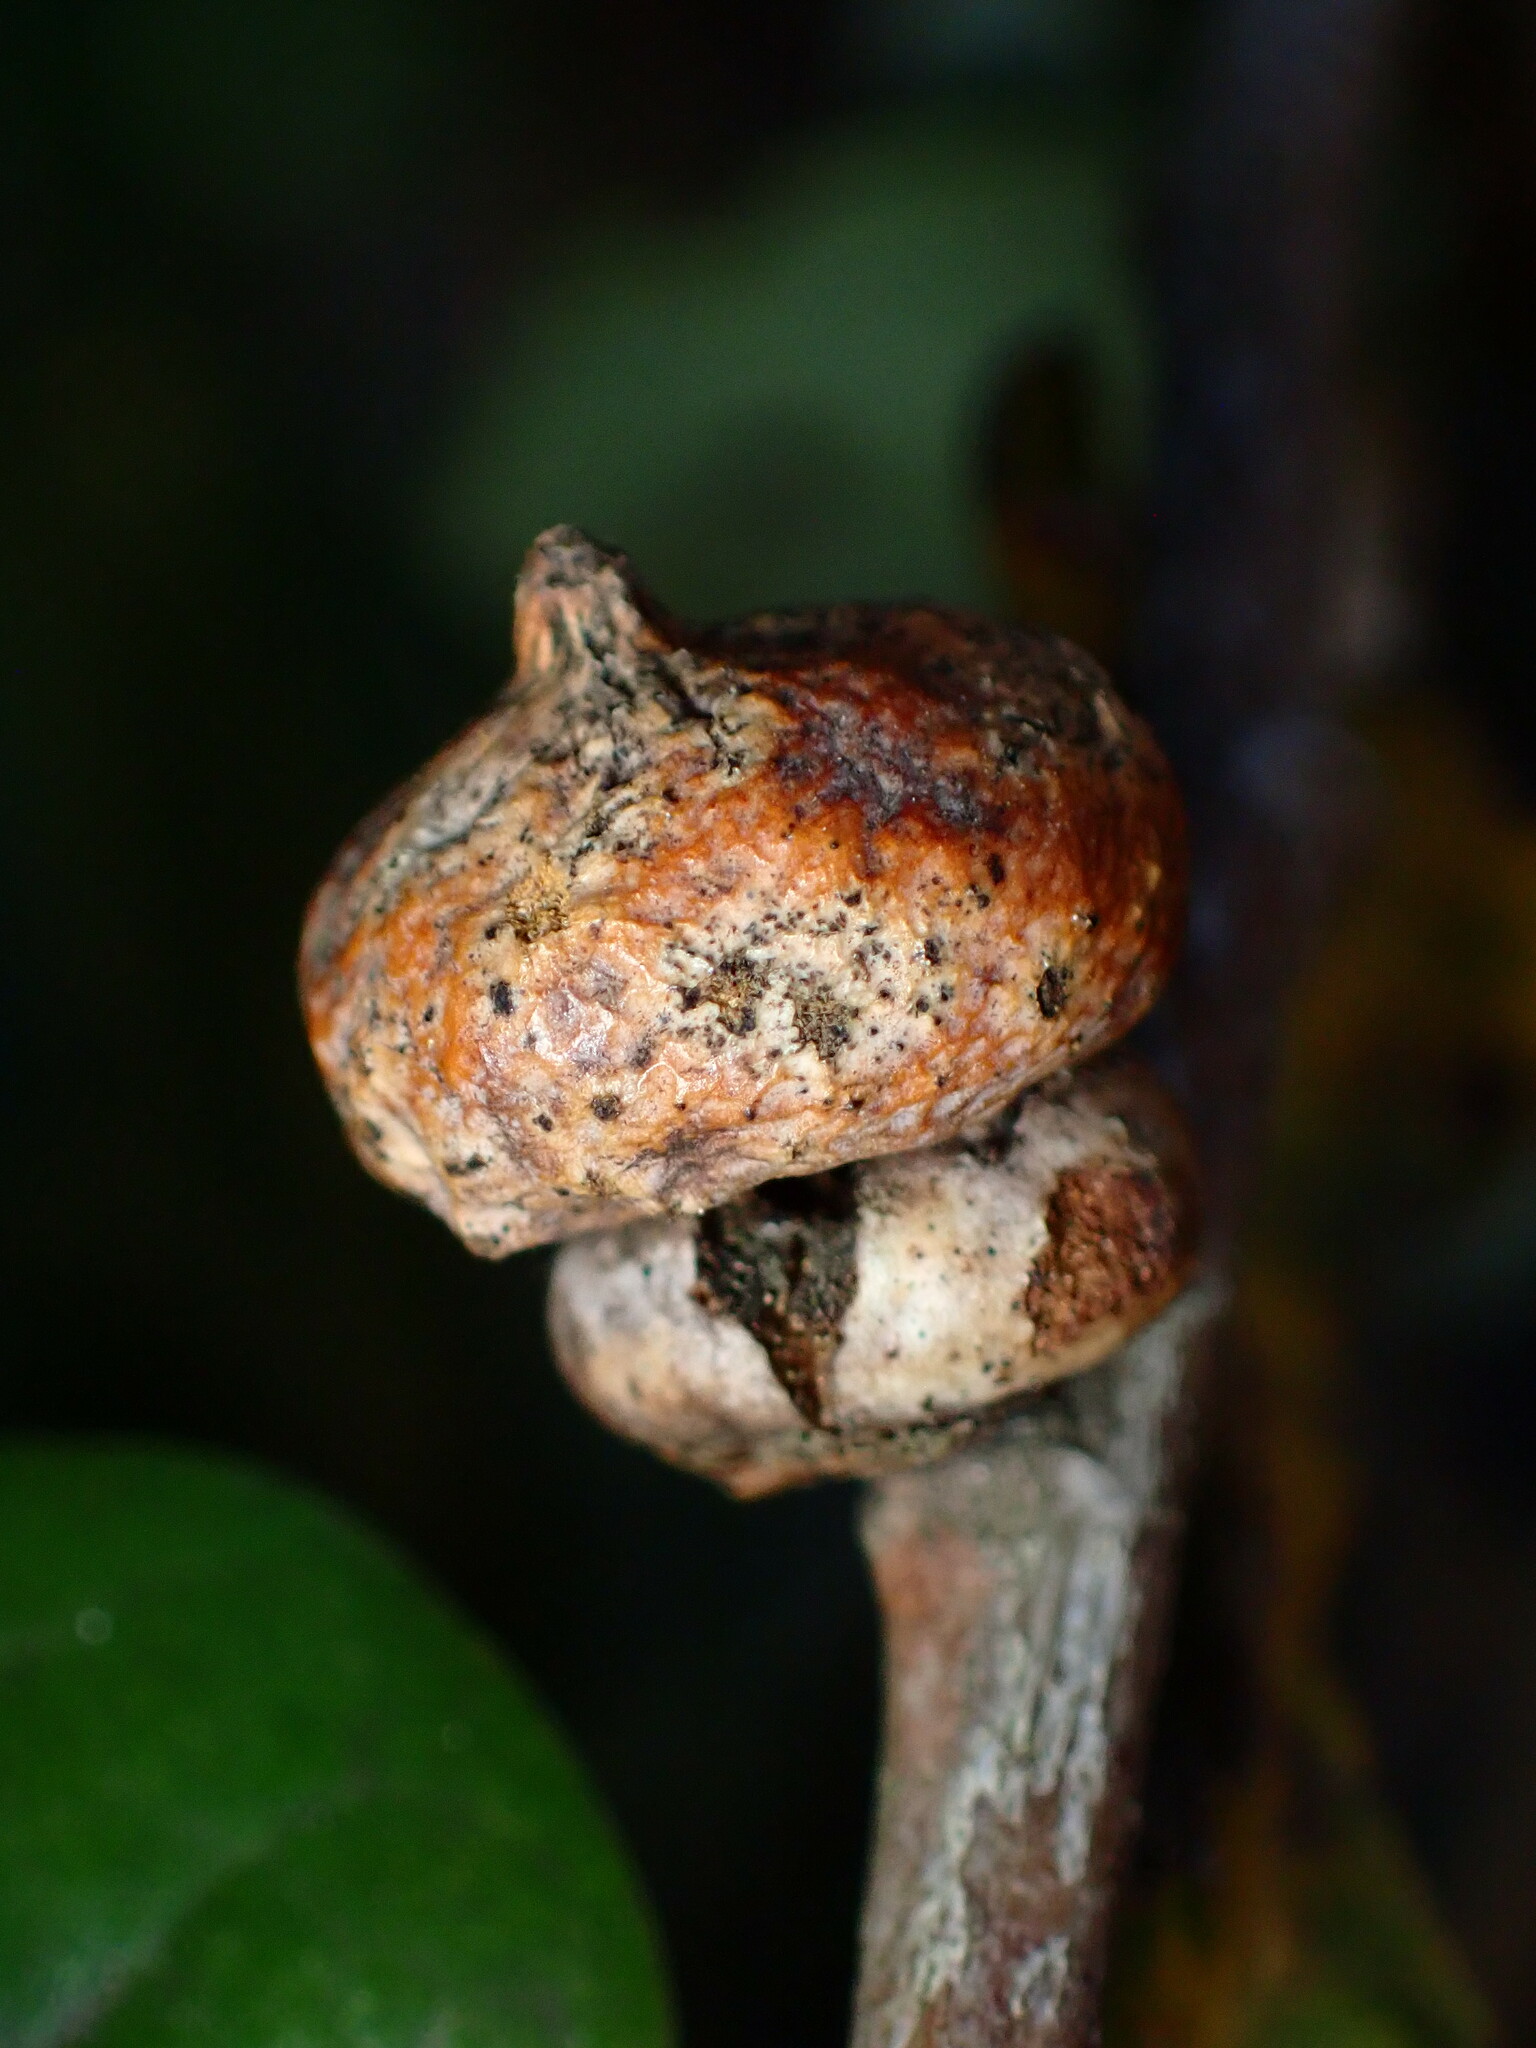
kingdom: Animalia
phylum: Arthropoda
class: Insecta
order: Hymenoptera
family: Cynipidae
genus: Heteroecus
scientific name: Heteroecus
